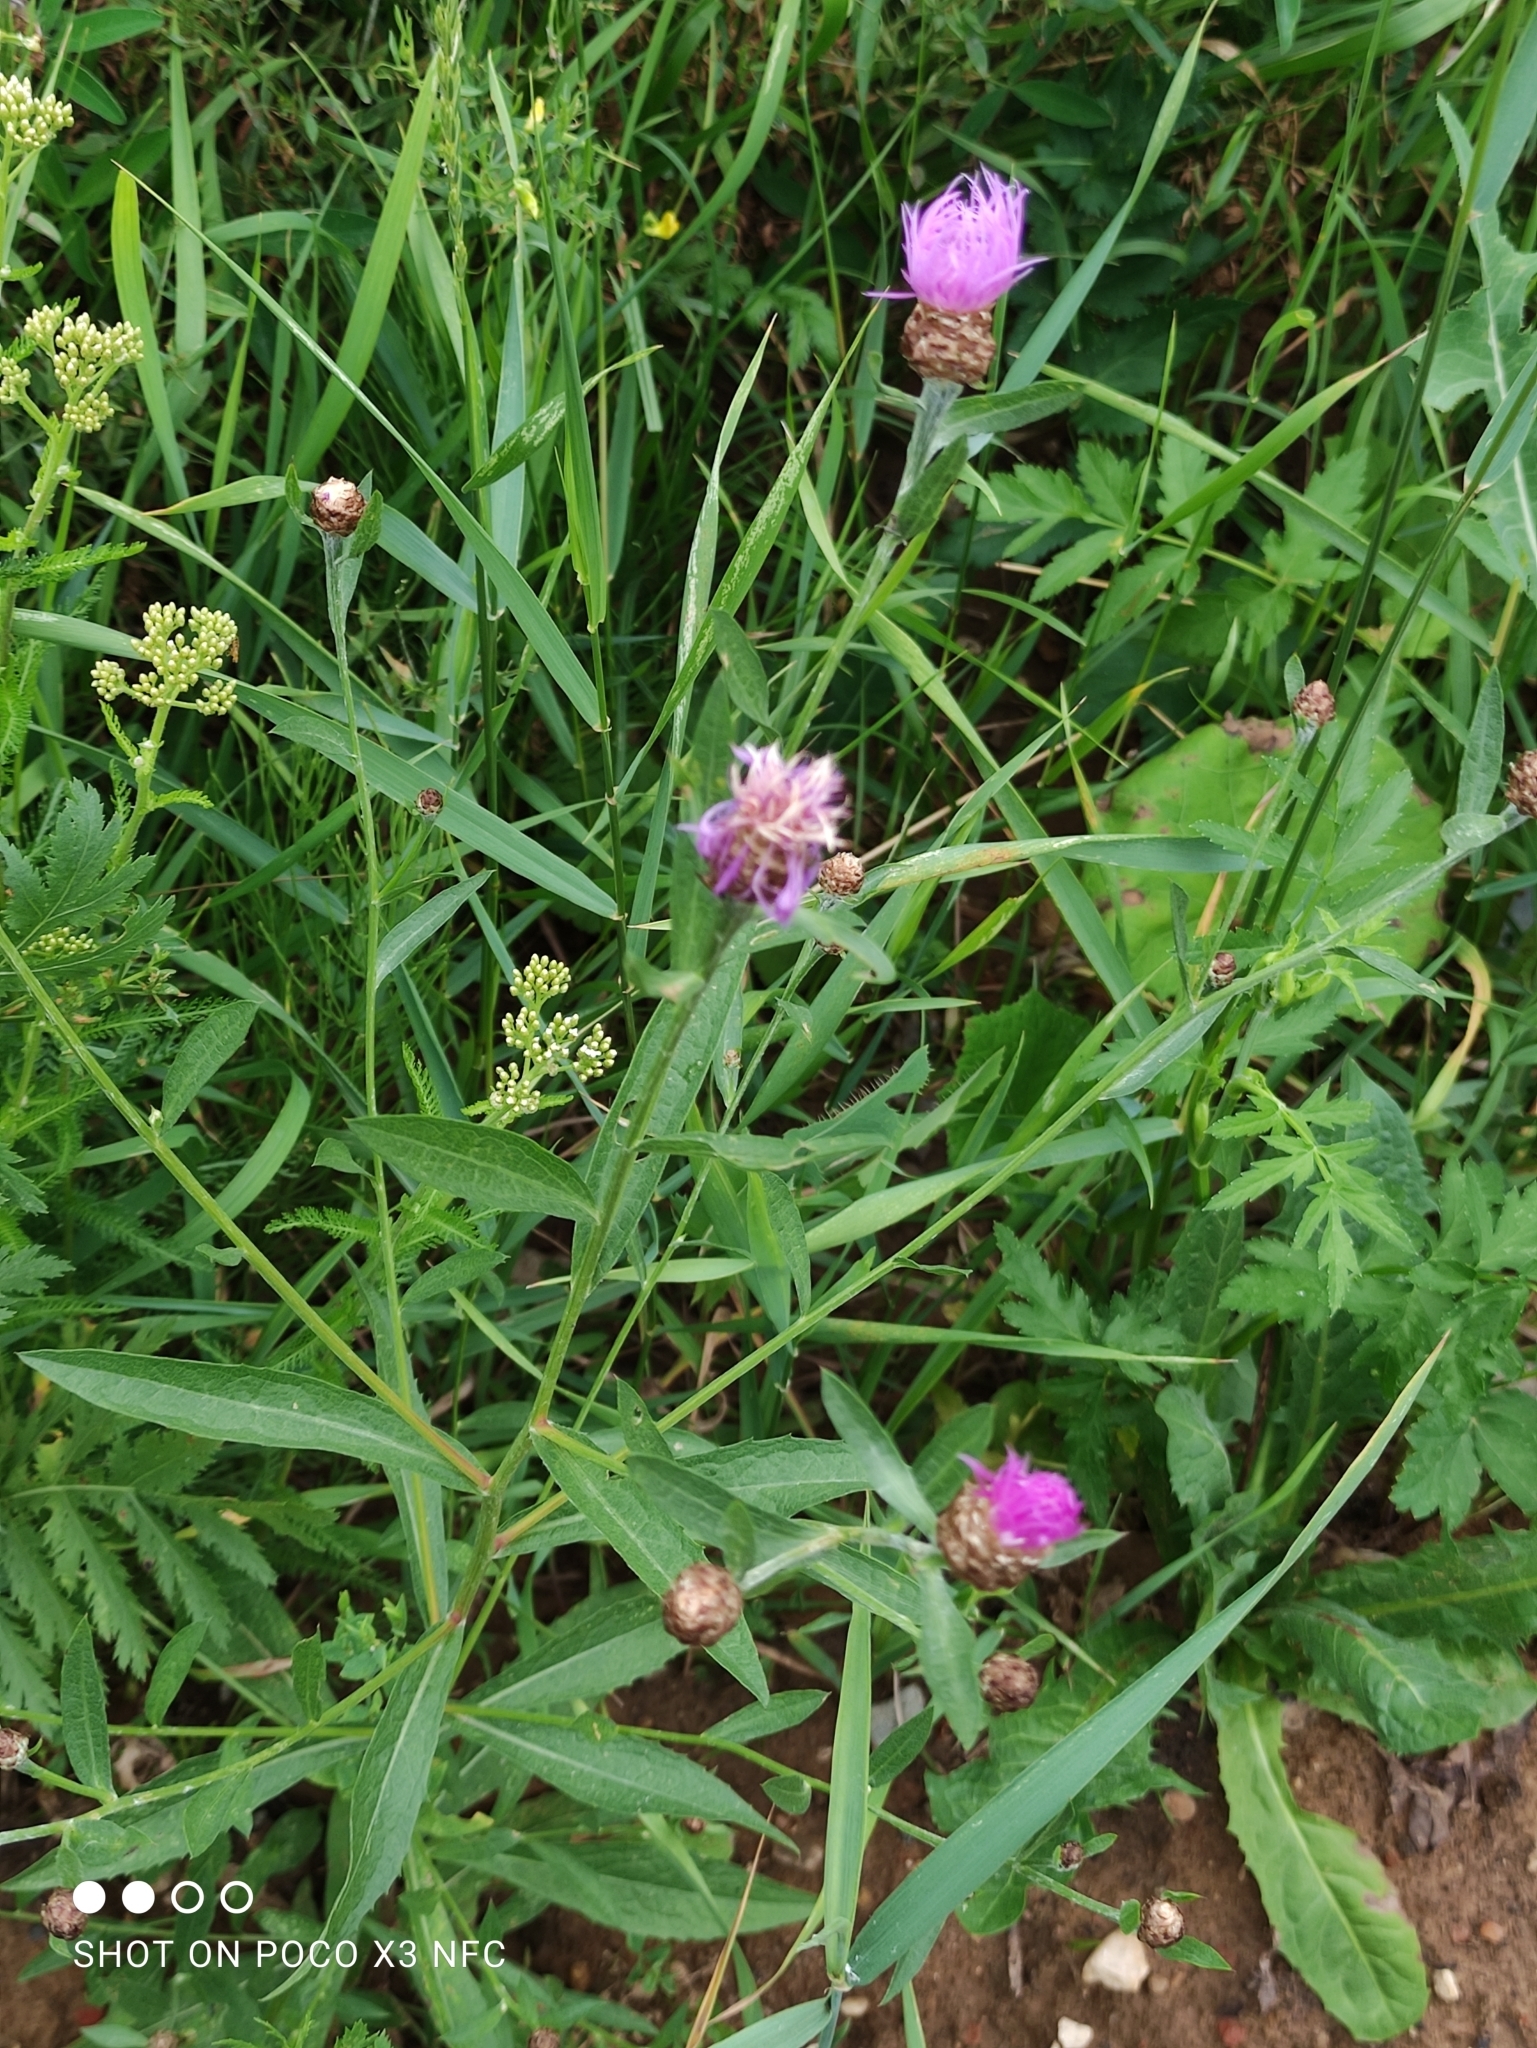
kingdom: Plantae
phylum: Tracheophyta
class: Magnoliopsida
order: Asterales
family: Asteraceae
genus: Centaurea
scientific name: Centaurea jacea
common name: Brown knapweed
